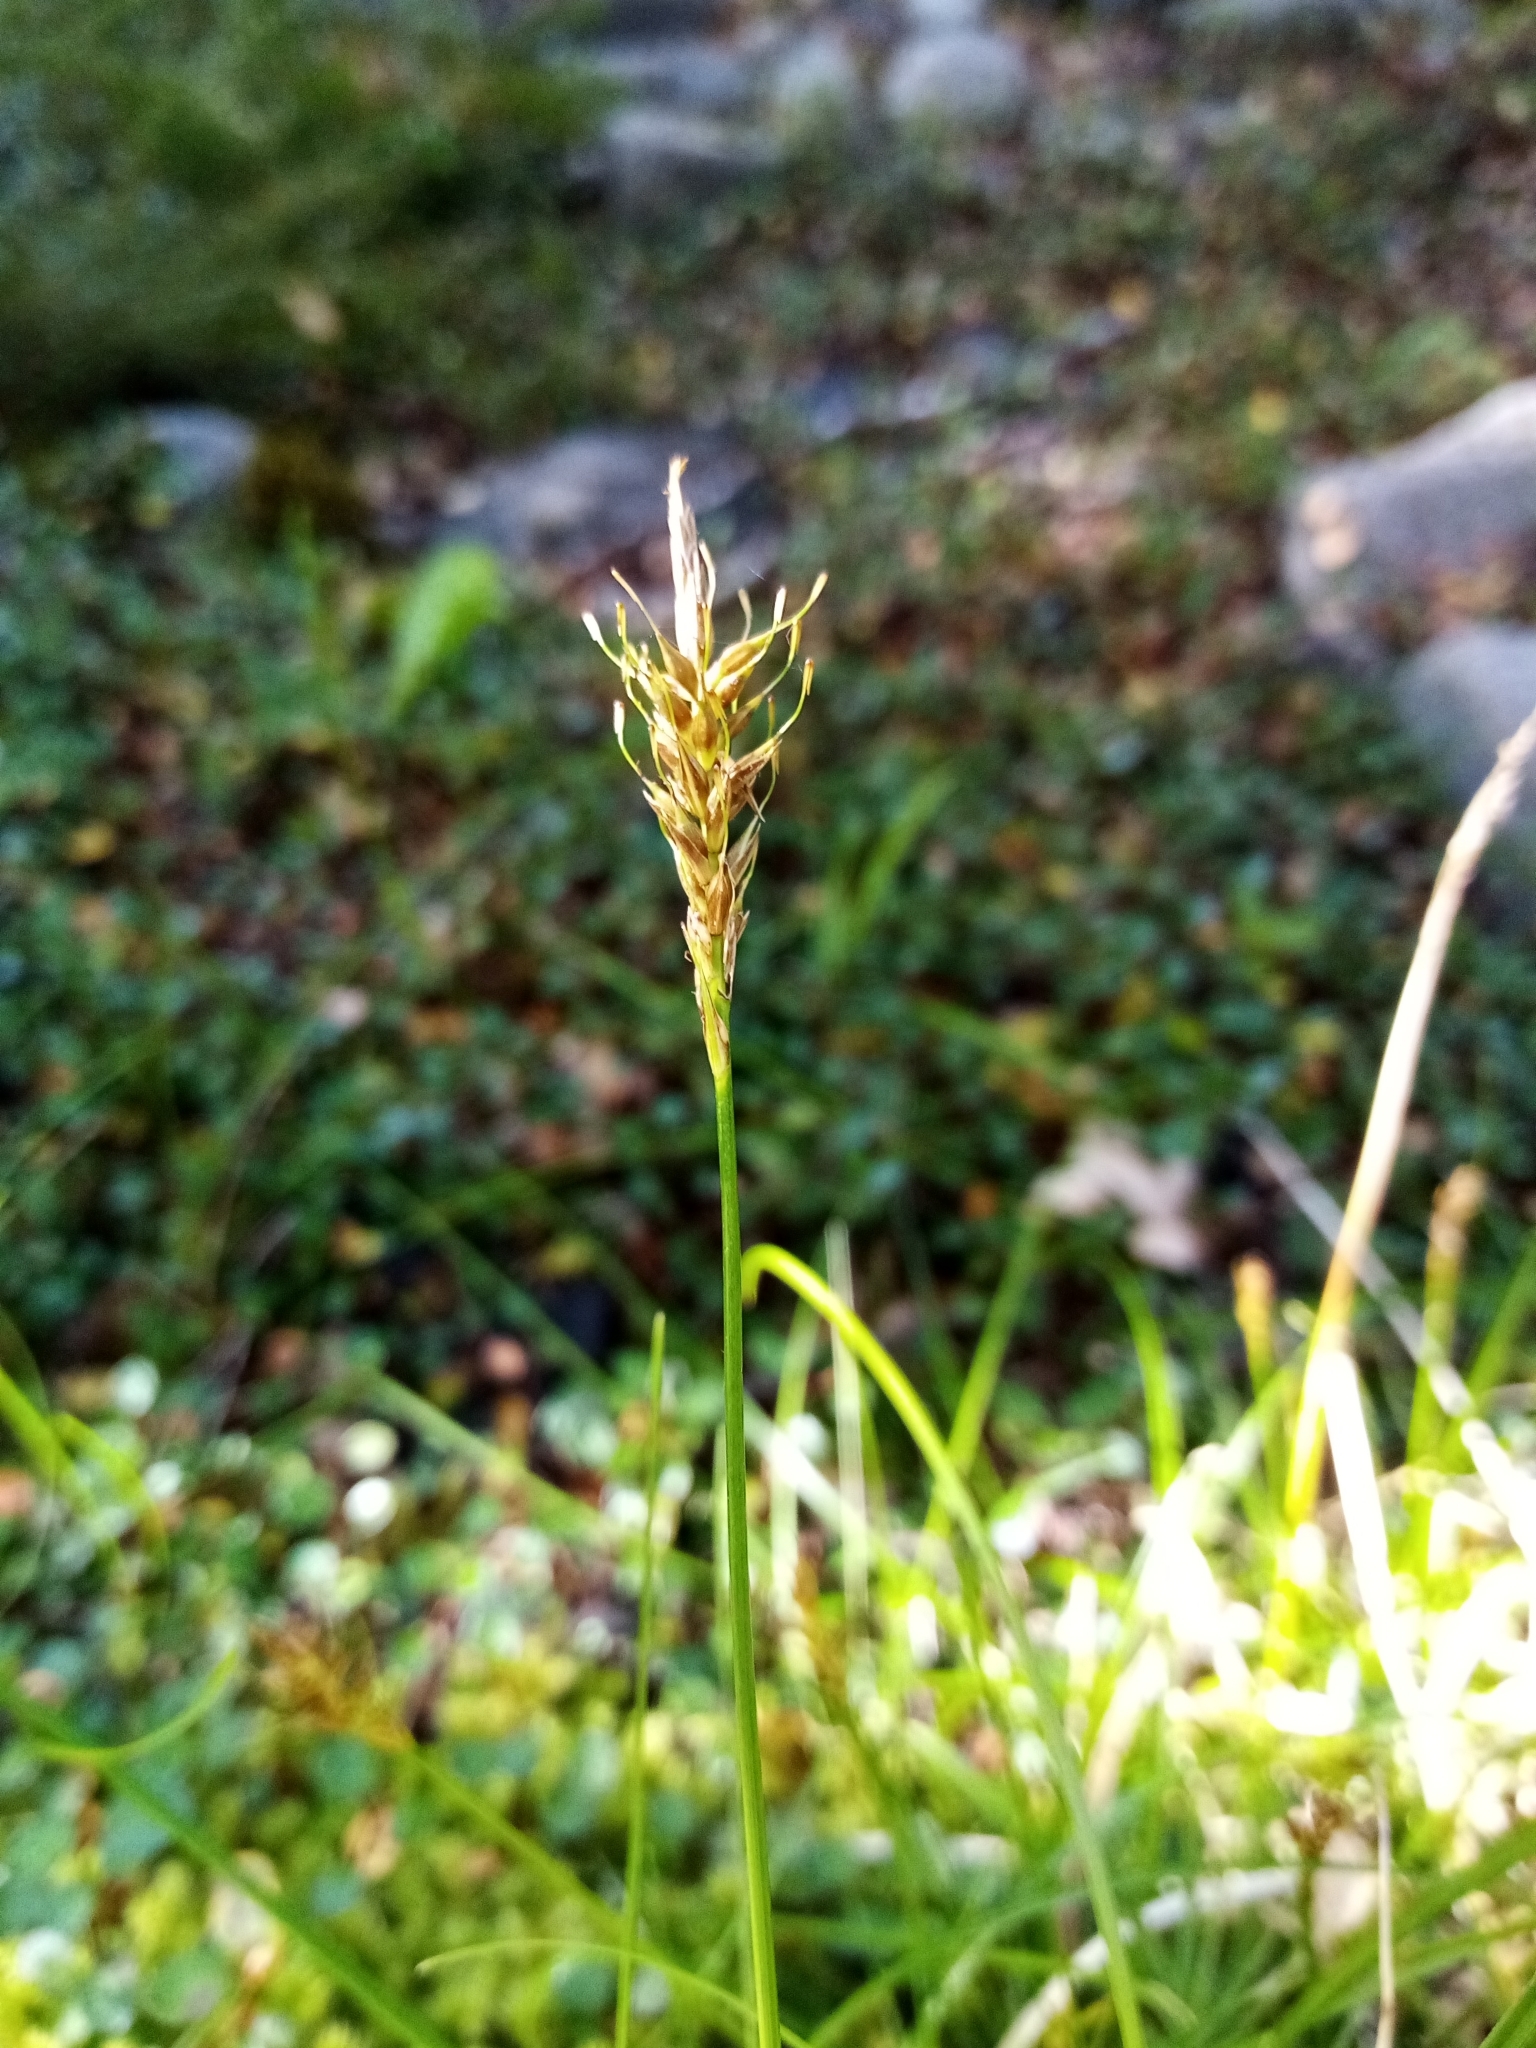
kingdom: Plantae
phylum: Tracheophyta
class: Liliopsida
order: Poales
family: Cyperaceae
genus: Carex
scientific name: Carex edura
